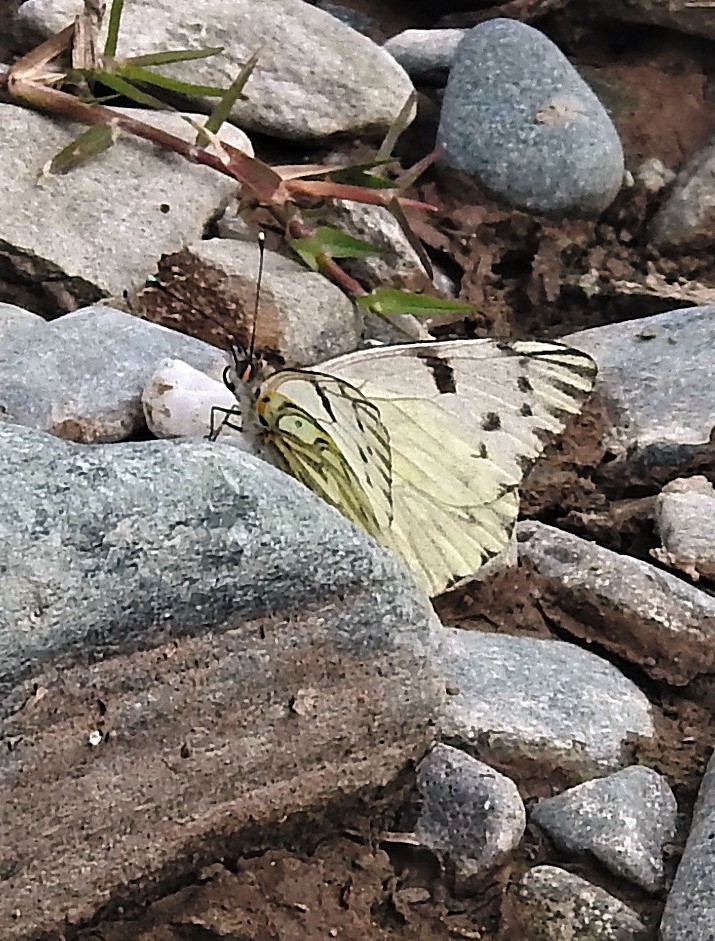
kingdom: Animalia
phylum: Arthropoda
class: Insecta
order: Lepidoptera
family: Pieridae
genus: Tatochila
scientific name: Tatochila autodice
